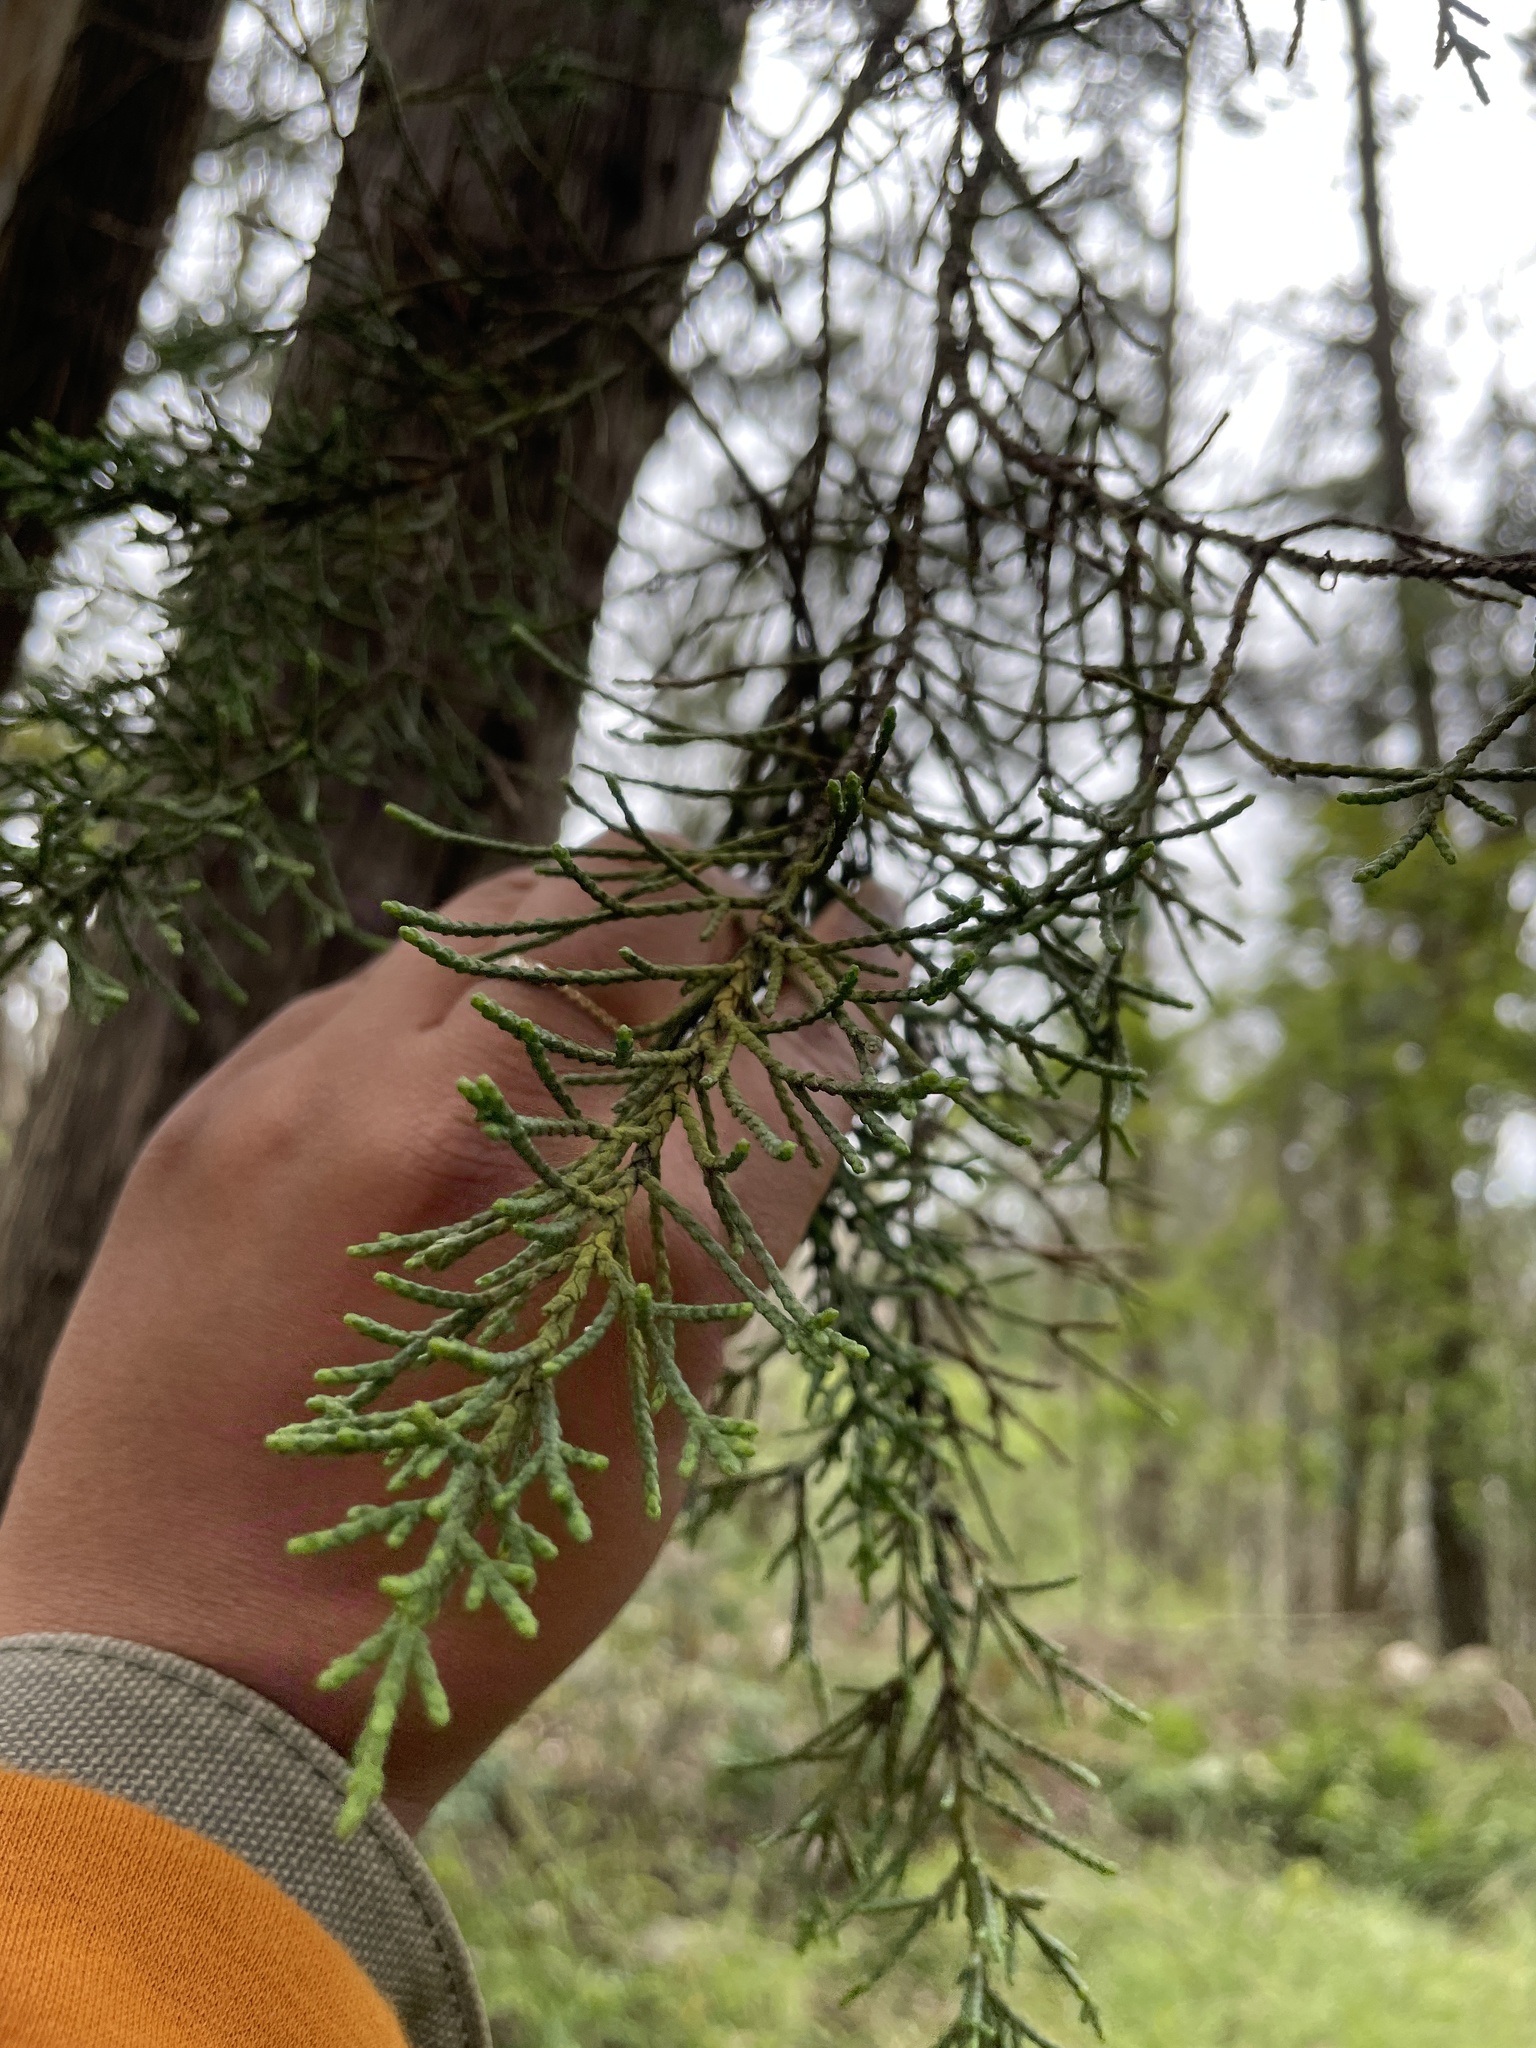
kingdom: Plantae
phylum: Tracheophyta
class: Pinopsida
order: Pinales
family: Cupressaceae
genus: Cupressus
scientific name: Cupressus macrocarpa
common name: Monterey cypress
